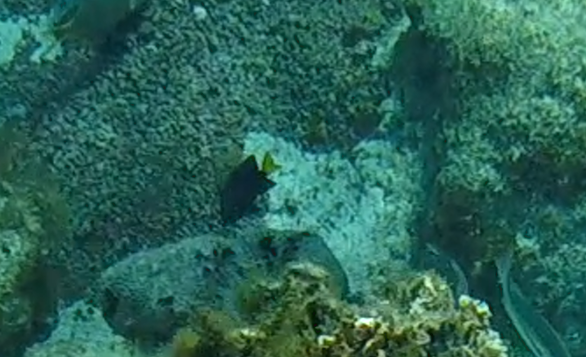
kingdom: Animalia
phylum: Chordata
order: Perciformes
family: Pomacentridae
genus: Microspathodon
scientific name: Microspathodon chrysurus
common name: Yellowtail damselfish
